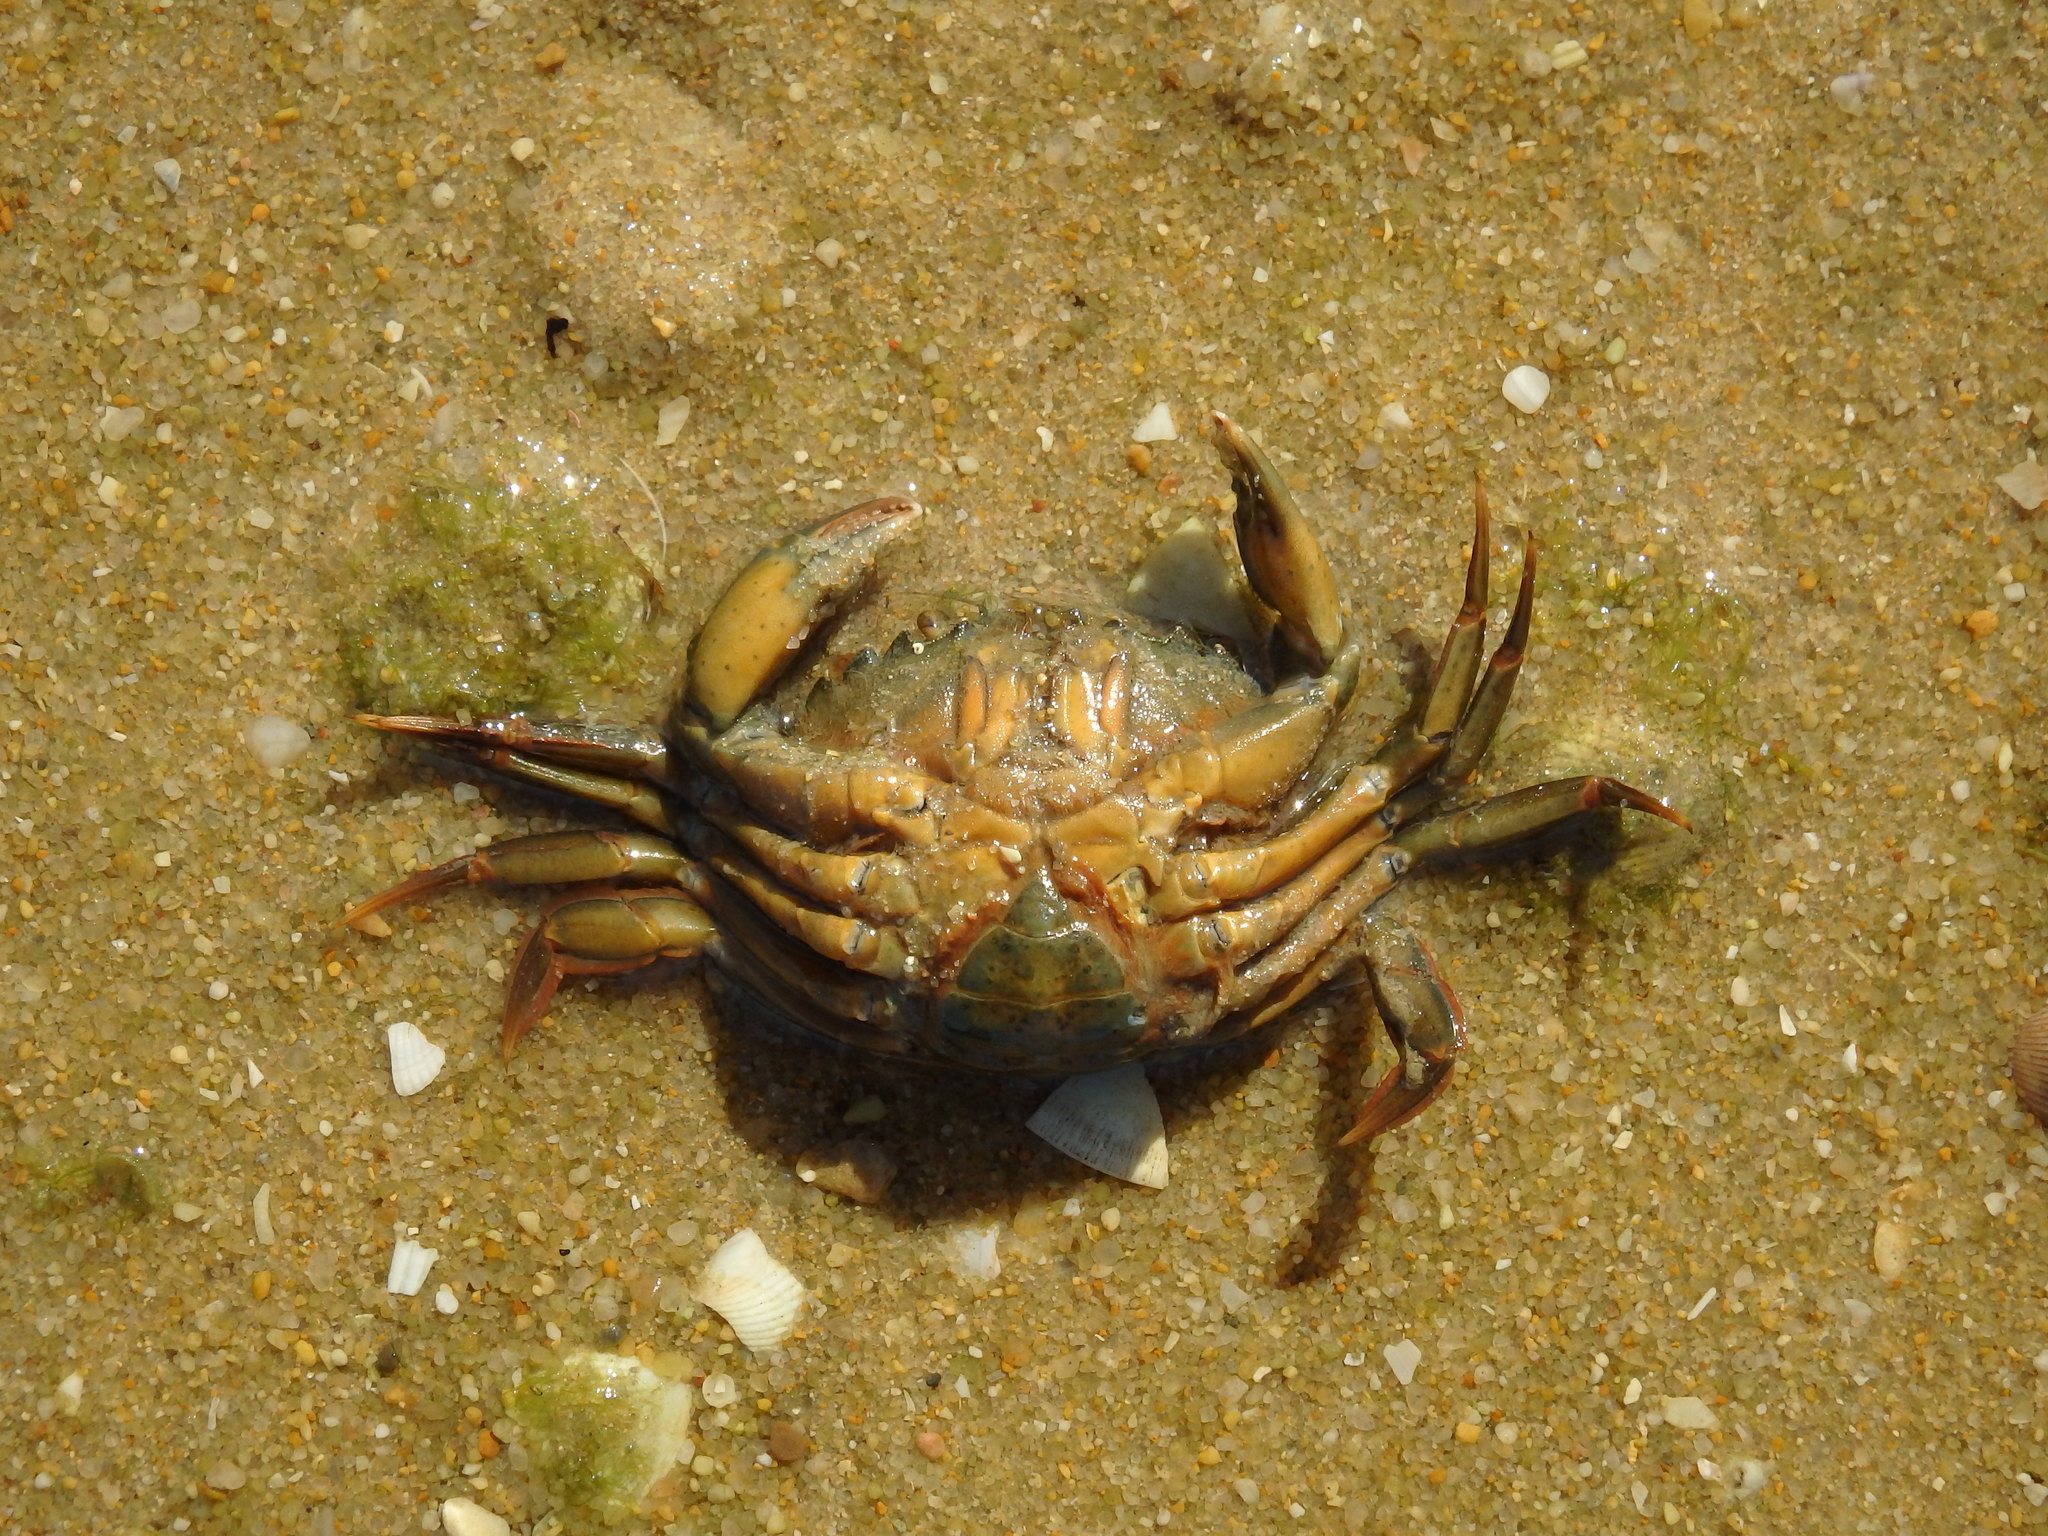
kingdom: Animalia
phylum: Arthropoda
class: Malacostraca
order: Decapoda
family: Carcinidae
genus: Carcinus
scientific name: Carcinus maenas
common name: European green crab
